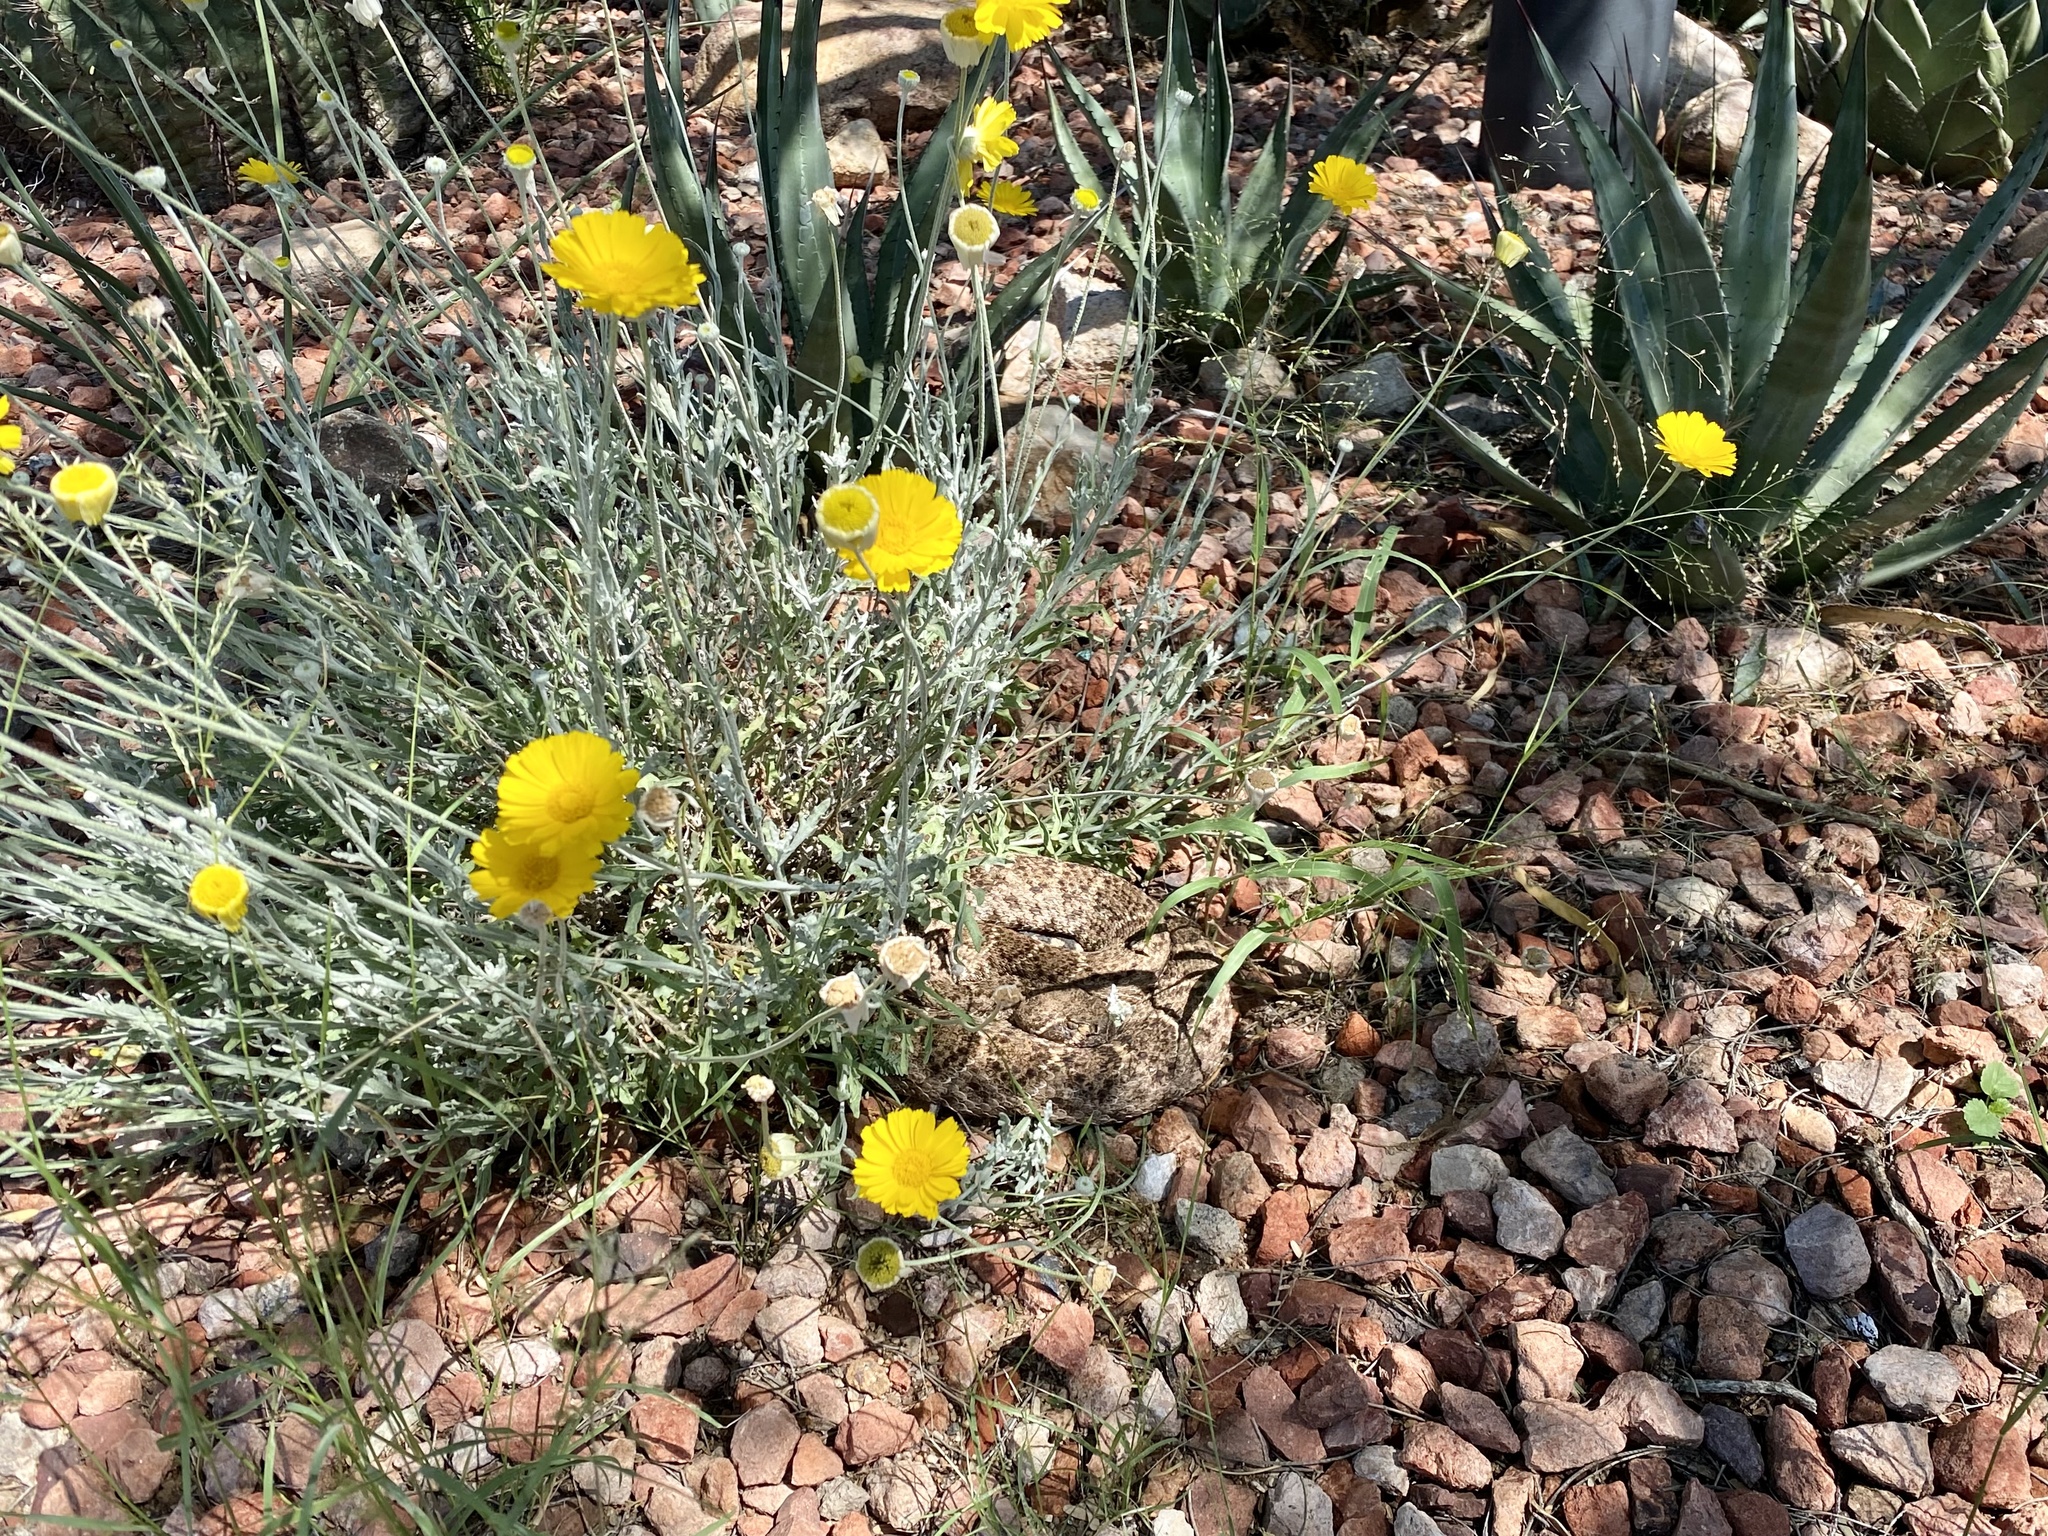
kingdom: Animalia
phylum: Chordata
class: Squamata
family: Viperidae
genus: Crotalus
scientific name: Crotalus atrox
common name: Western diamond-backed rattlesnake
